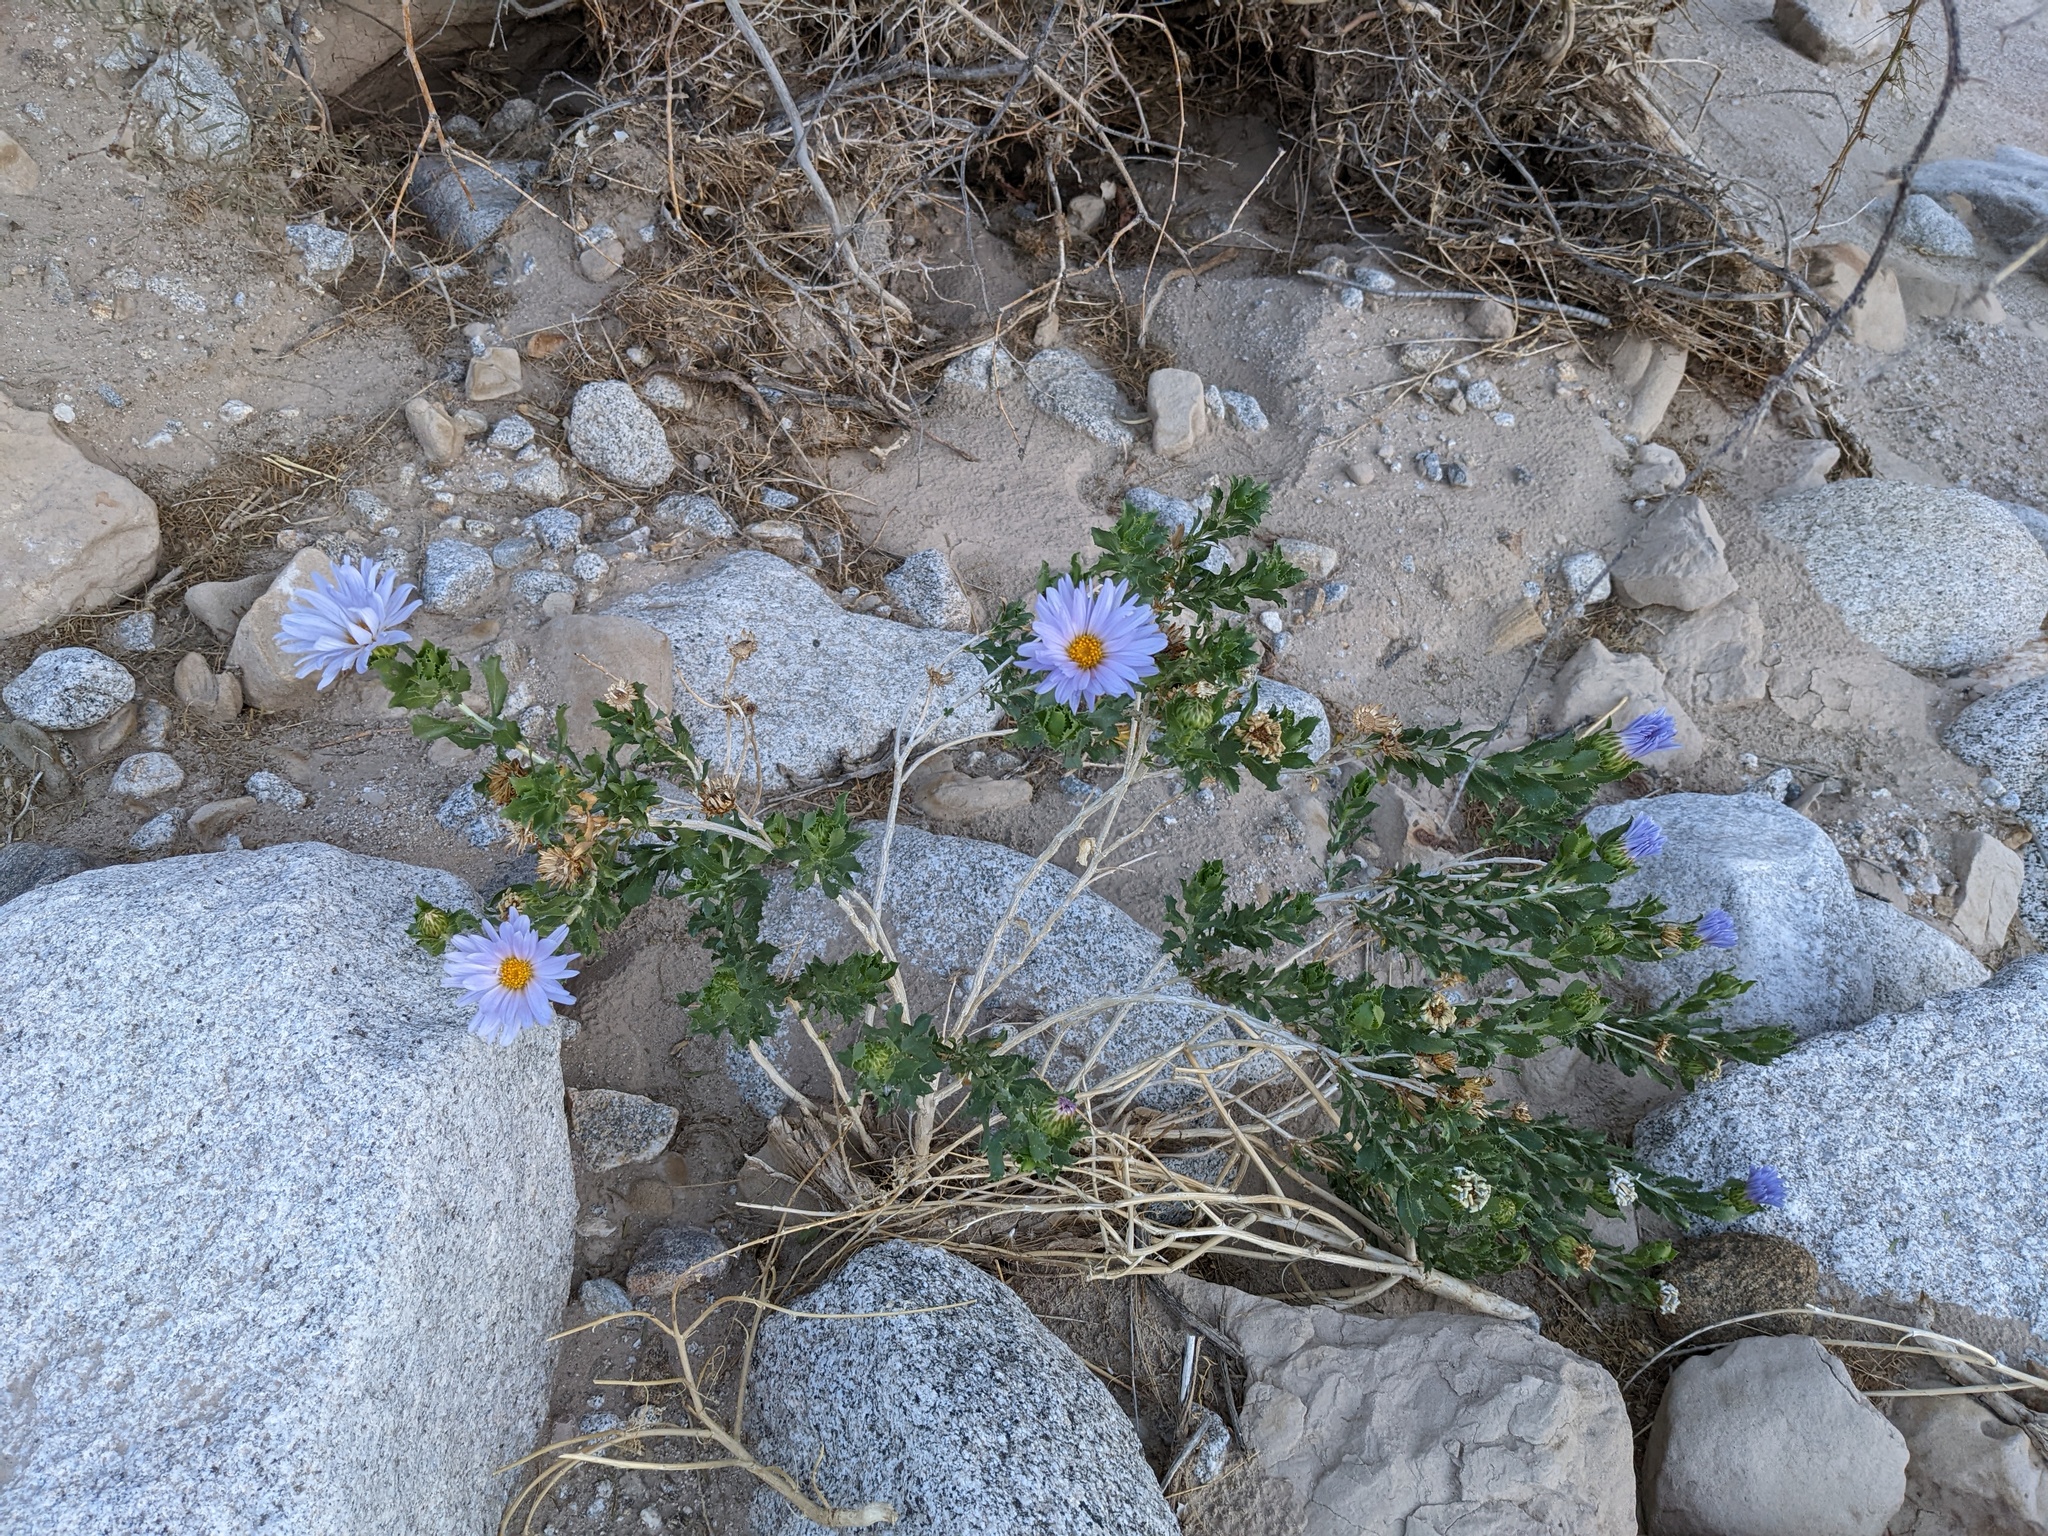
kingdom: Plantae
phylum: Tracheophyta
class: Magnoliopsida
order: Asterales
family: Asteraceae
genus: Xylorhiza
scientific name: Xylorhiza orcuttii
